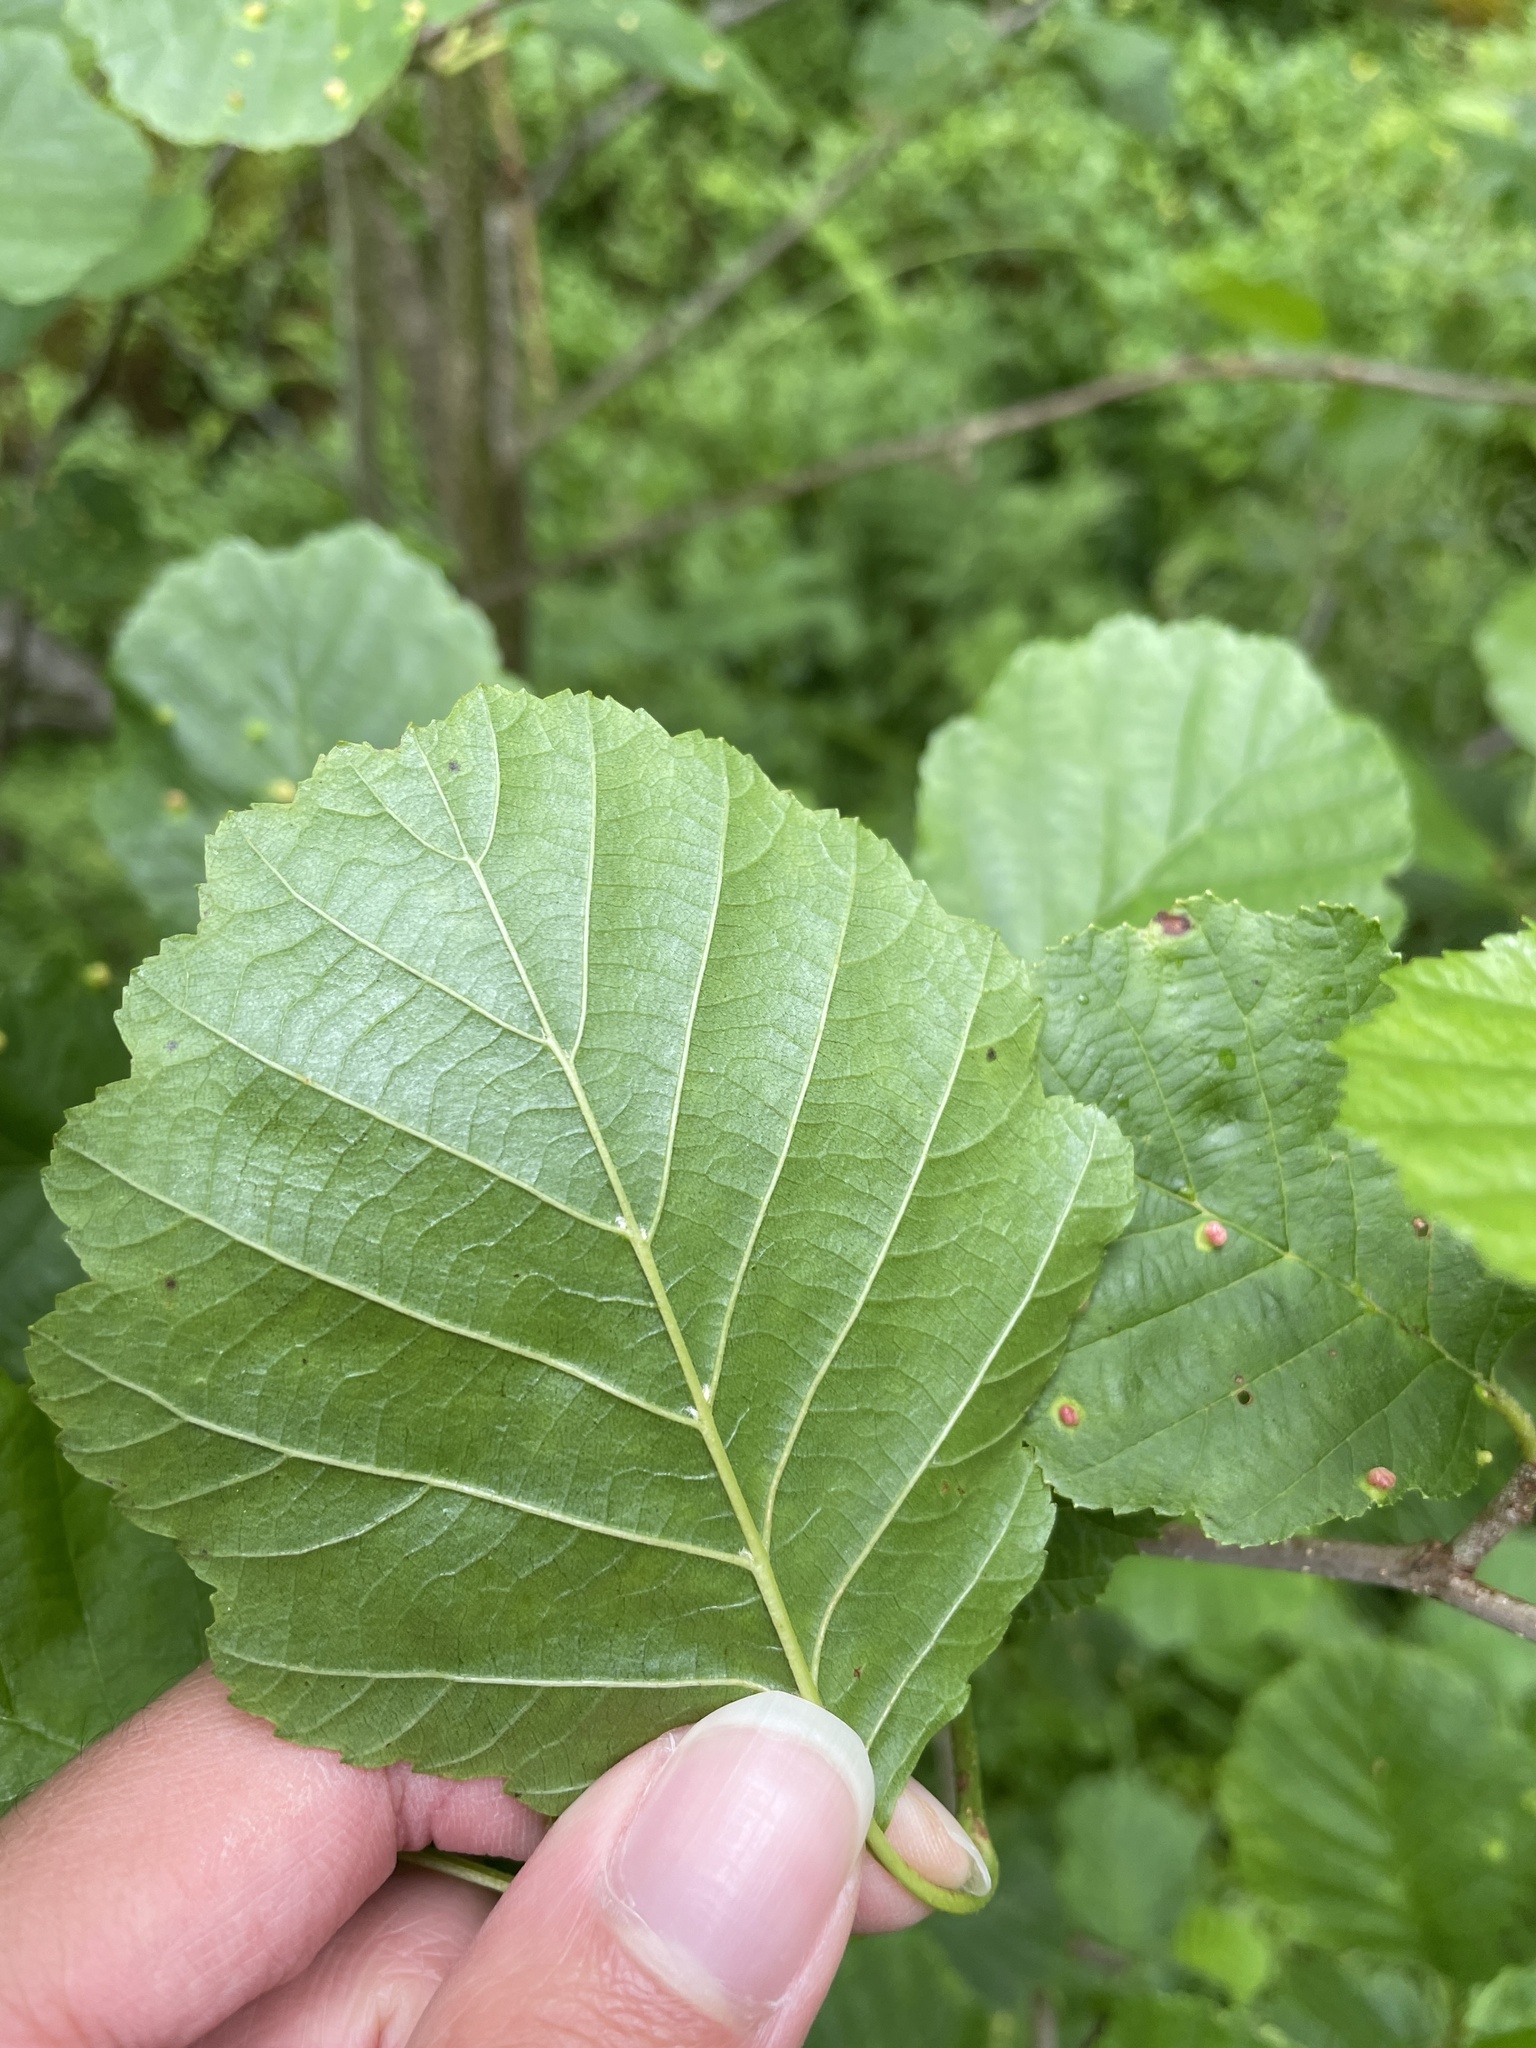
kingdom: Plantae
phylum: Tracheophyta
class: Magnoliopsida
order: Fagales
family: Betulaceae
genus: Alnus
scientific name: Alnus glutinosa
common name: Black alder
